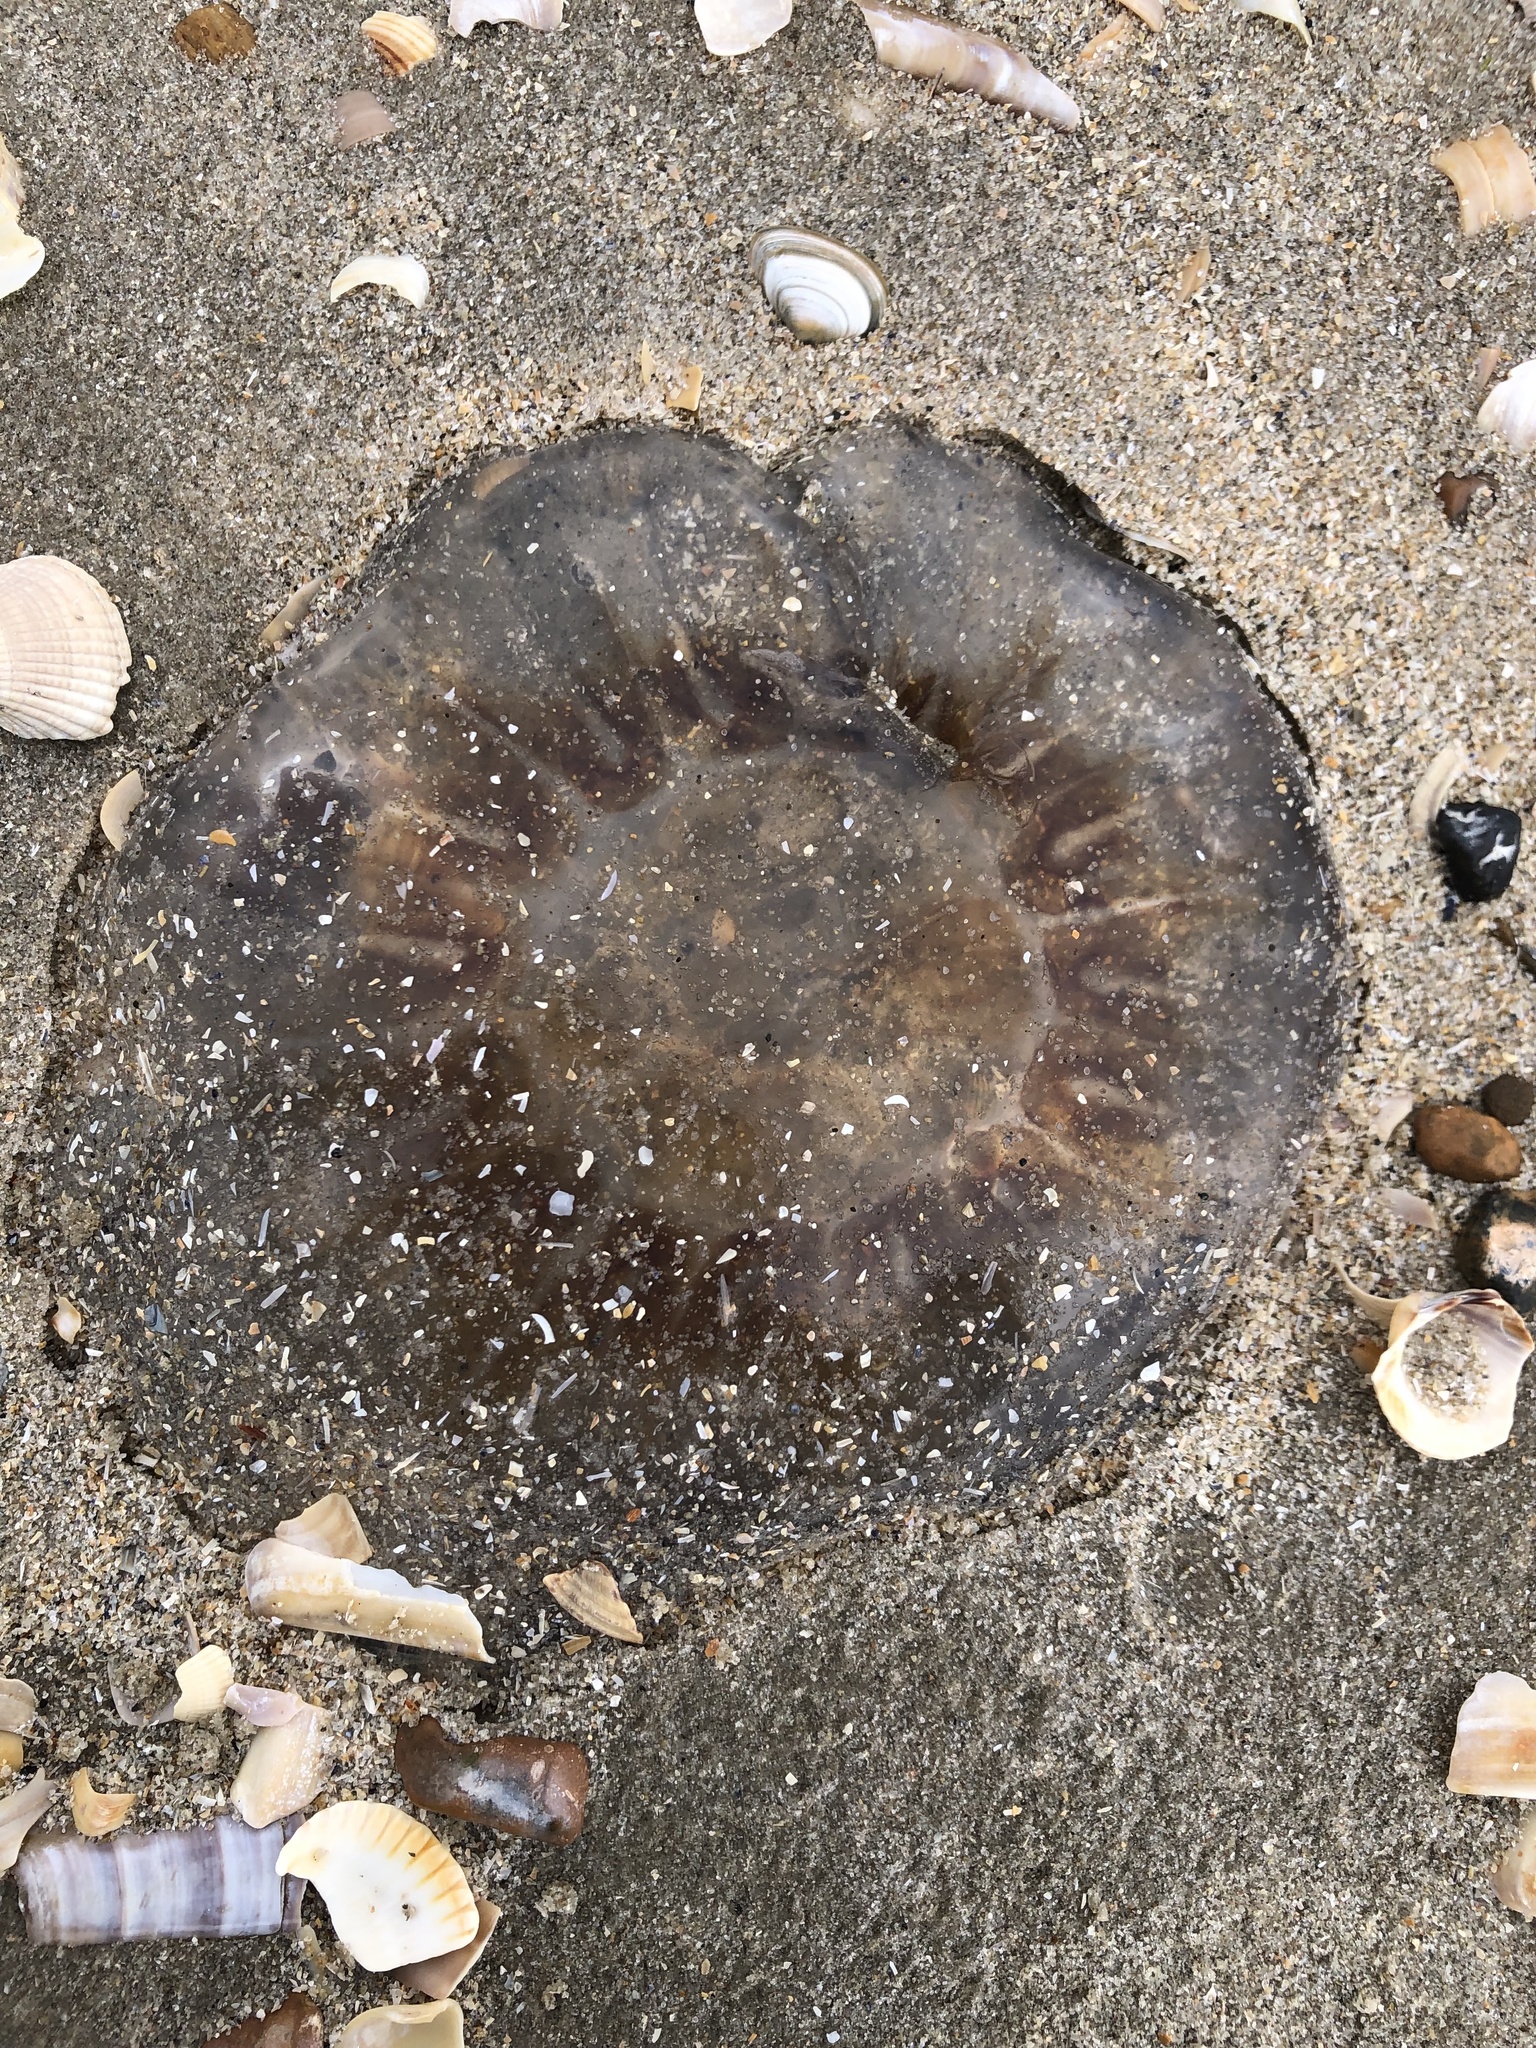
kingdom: Animalia
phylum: Cnidaria
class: Scyphozoa
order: Semaeostomeae
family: Cyaneidae
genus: Cyanea
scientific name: Cyanea capillata
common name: Lion's mane jellyfish
